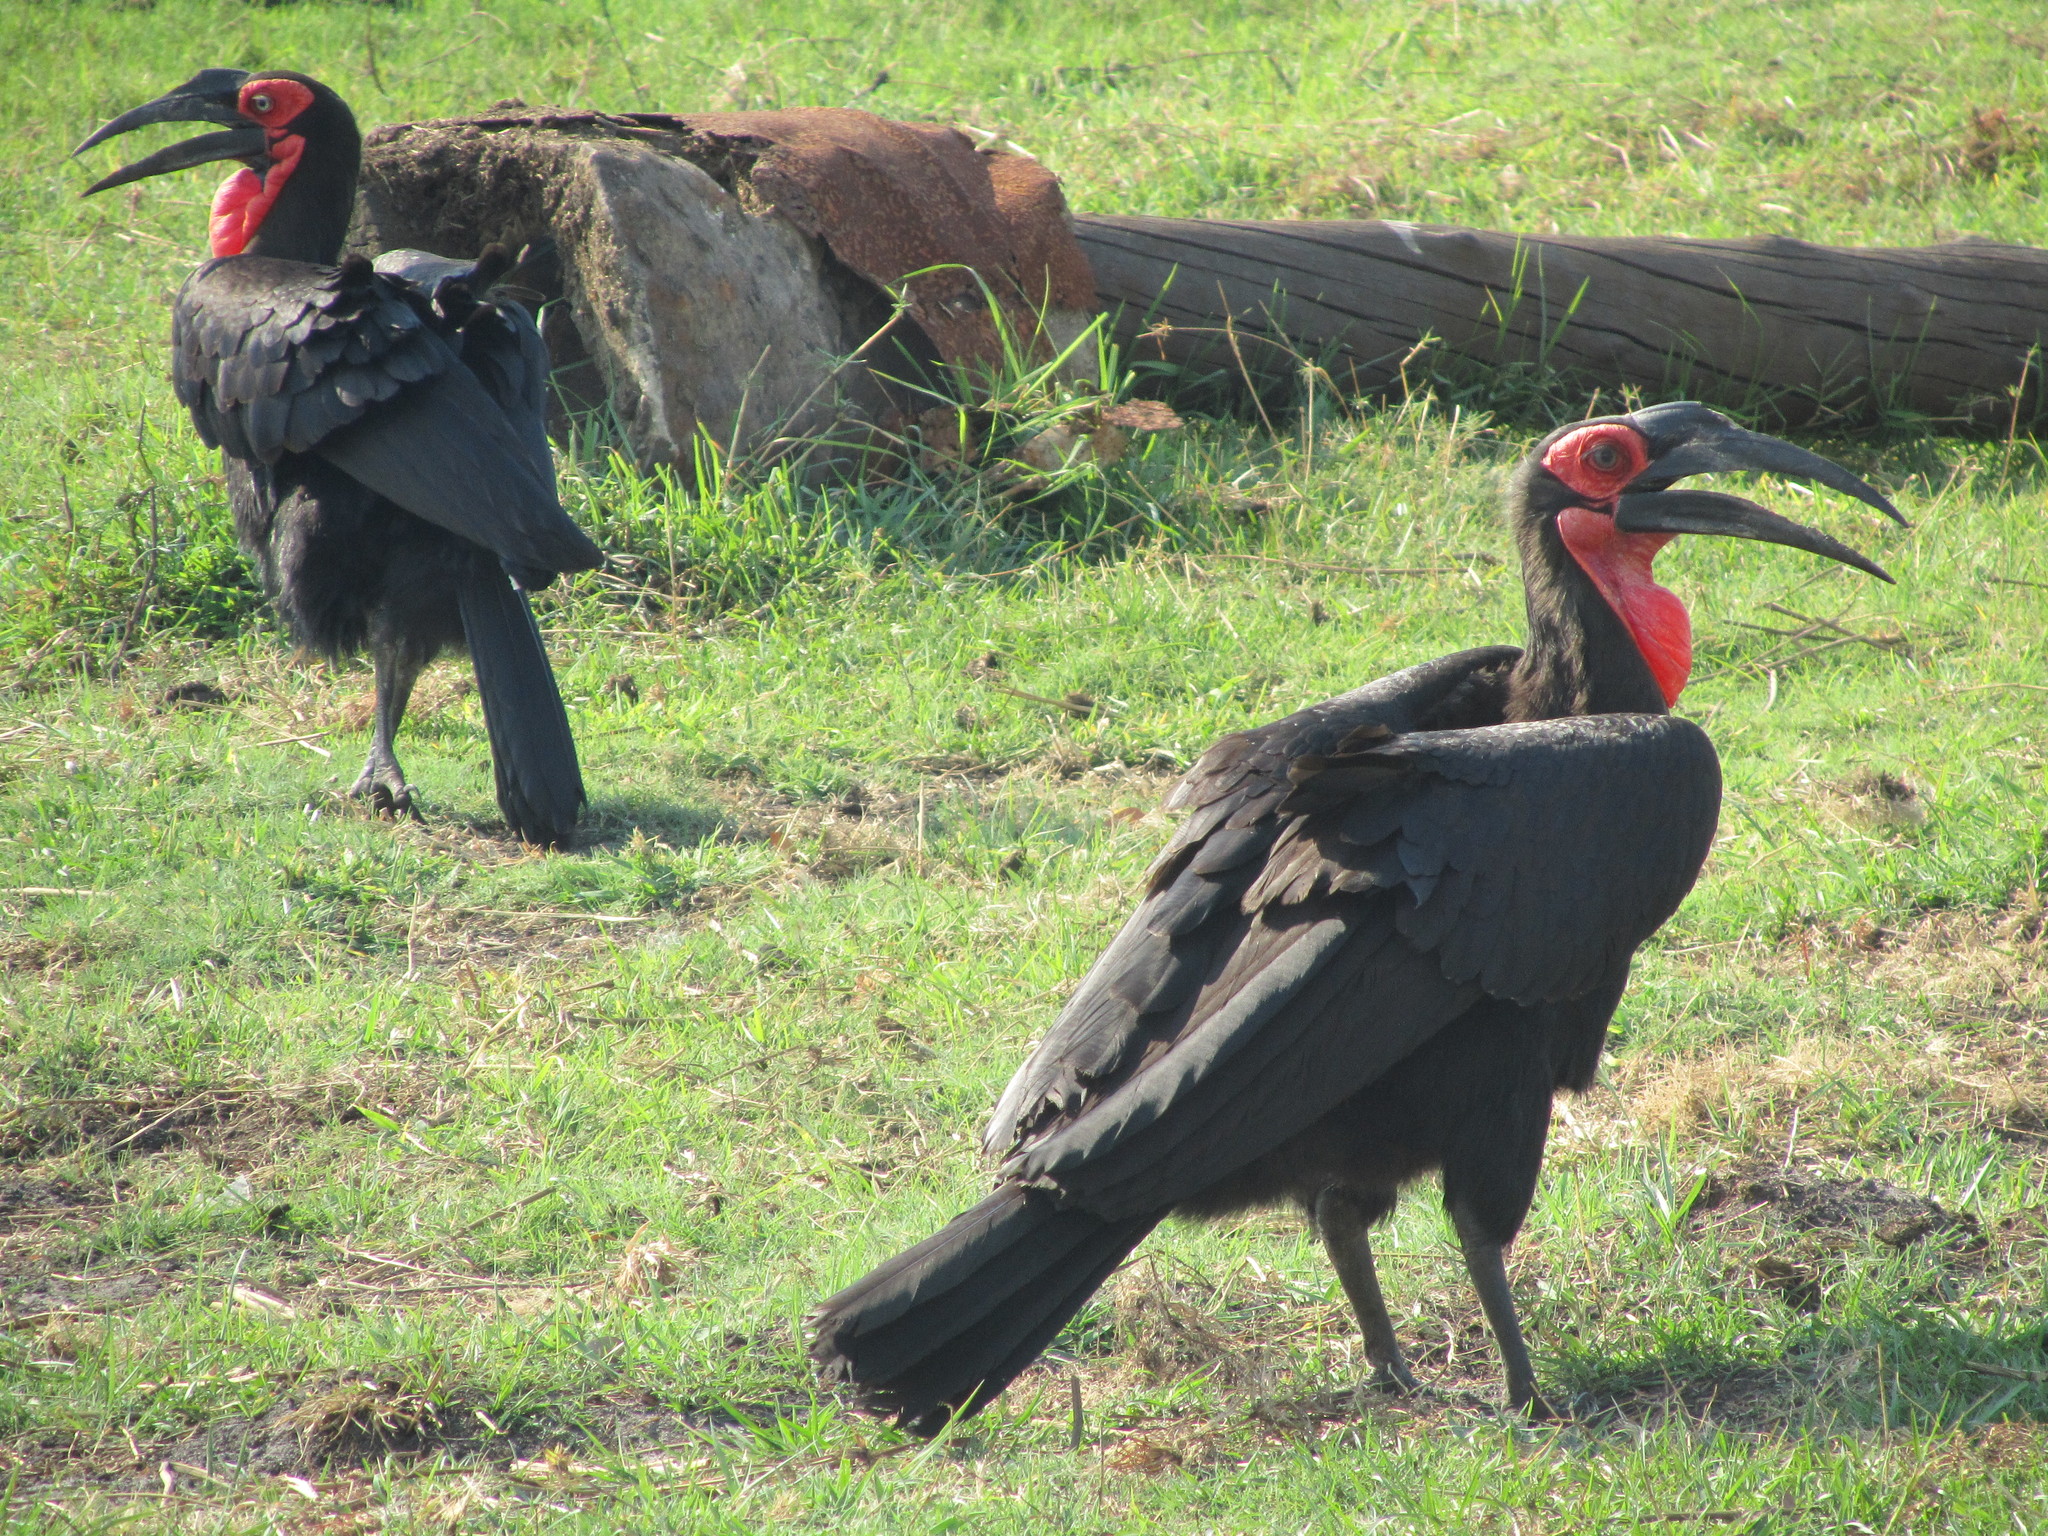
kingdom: Animalia
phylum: Chordata
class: Aves
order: Bucerotiformes
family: Bucorvidae
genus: Bucorvus
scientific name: Bucorvus leadbeateri
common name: Southern ground-hornbill
